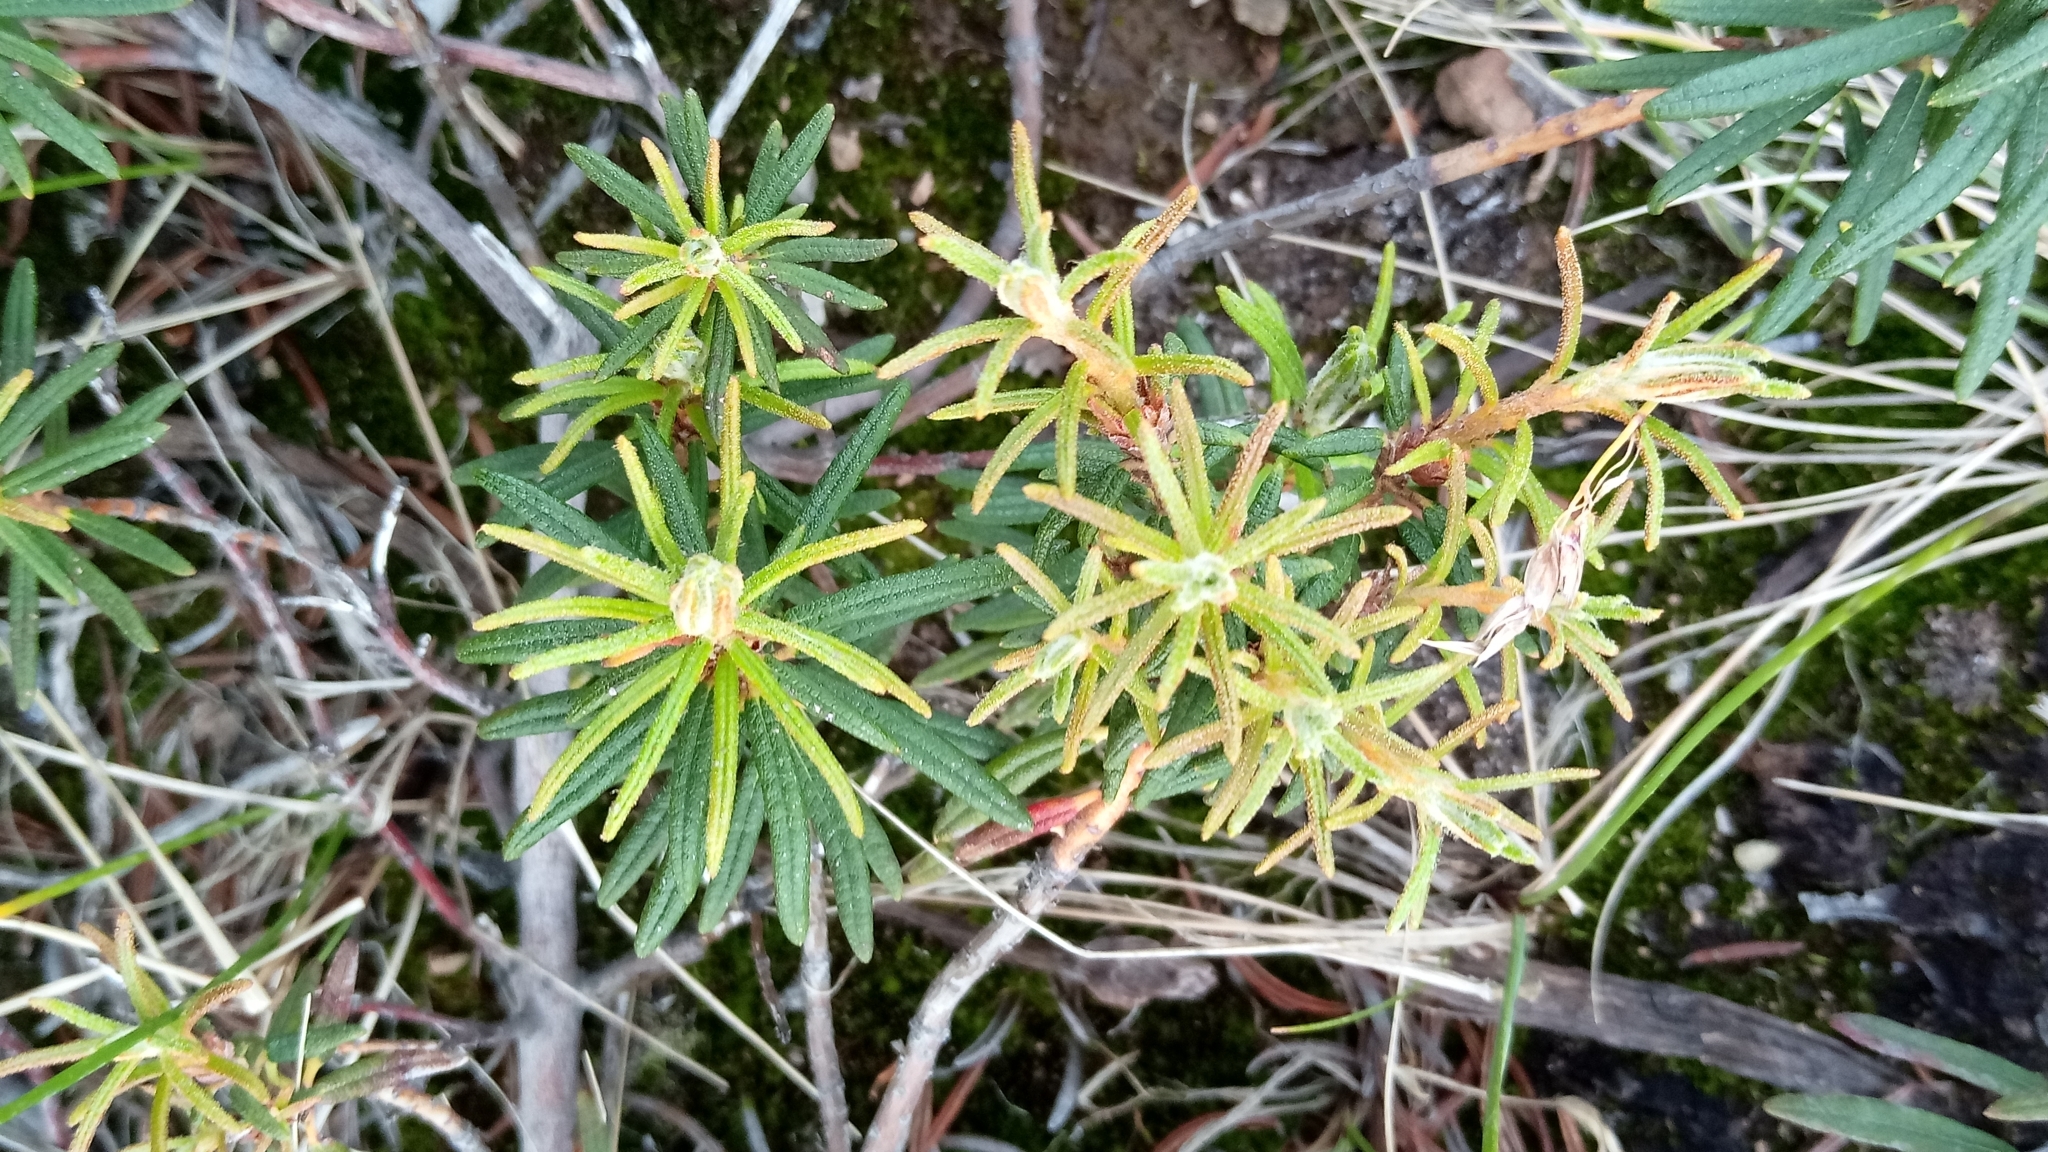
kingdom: Plantae
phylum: Tracheophyta
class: Magnoliopsida
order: Ericales
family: Ericaceae
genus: Rhododendron
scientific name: Rhododendron tomentosum
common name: Marsh labrador tea
